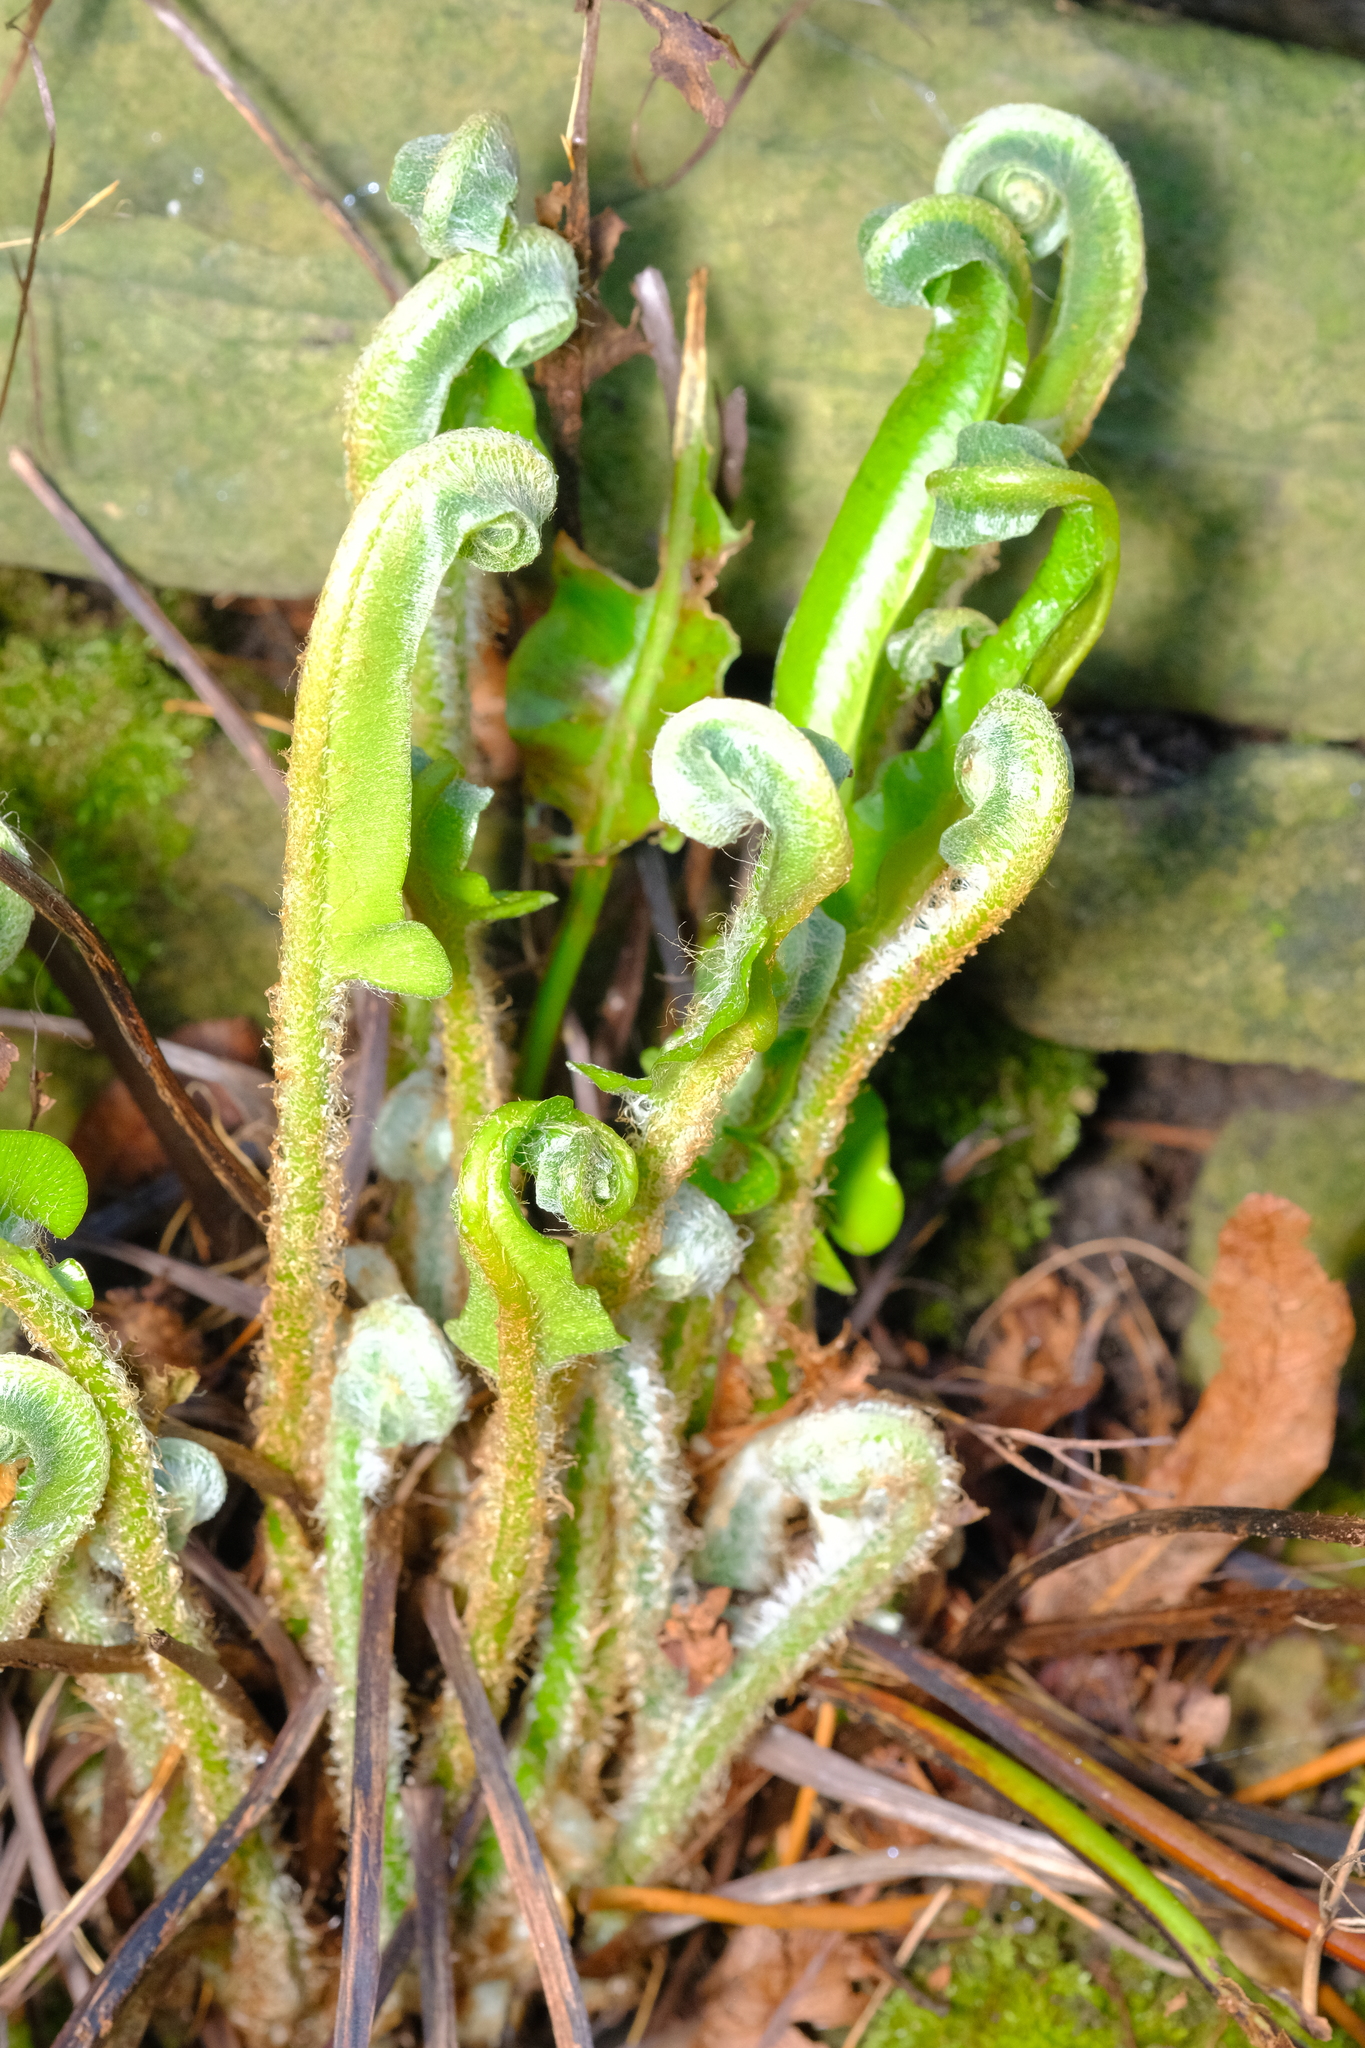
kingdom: Plantae
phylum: Tracheophyta
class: Polypodiopsida
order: Polypodiales
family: Aspleniaceae
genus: Asplenium
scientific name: Asplenium scolopendrium
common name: Hart's-tongue fern
